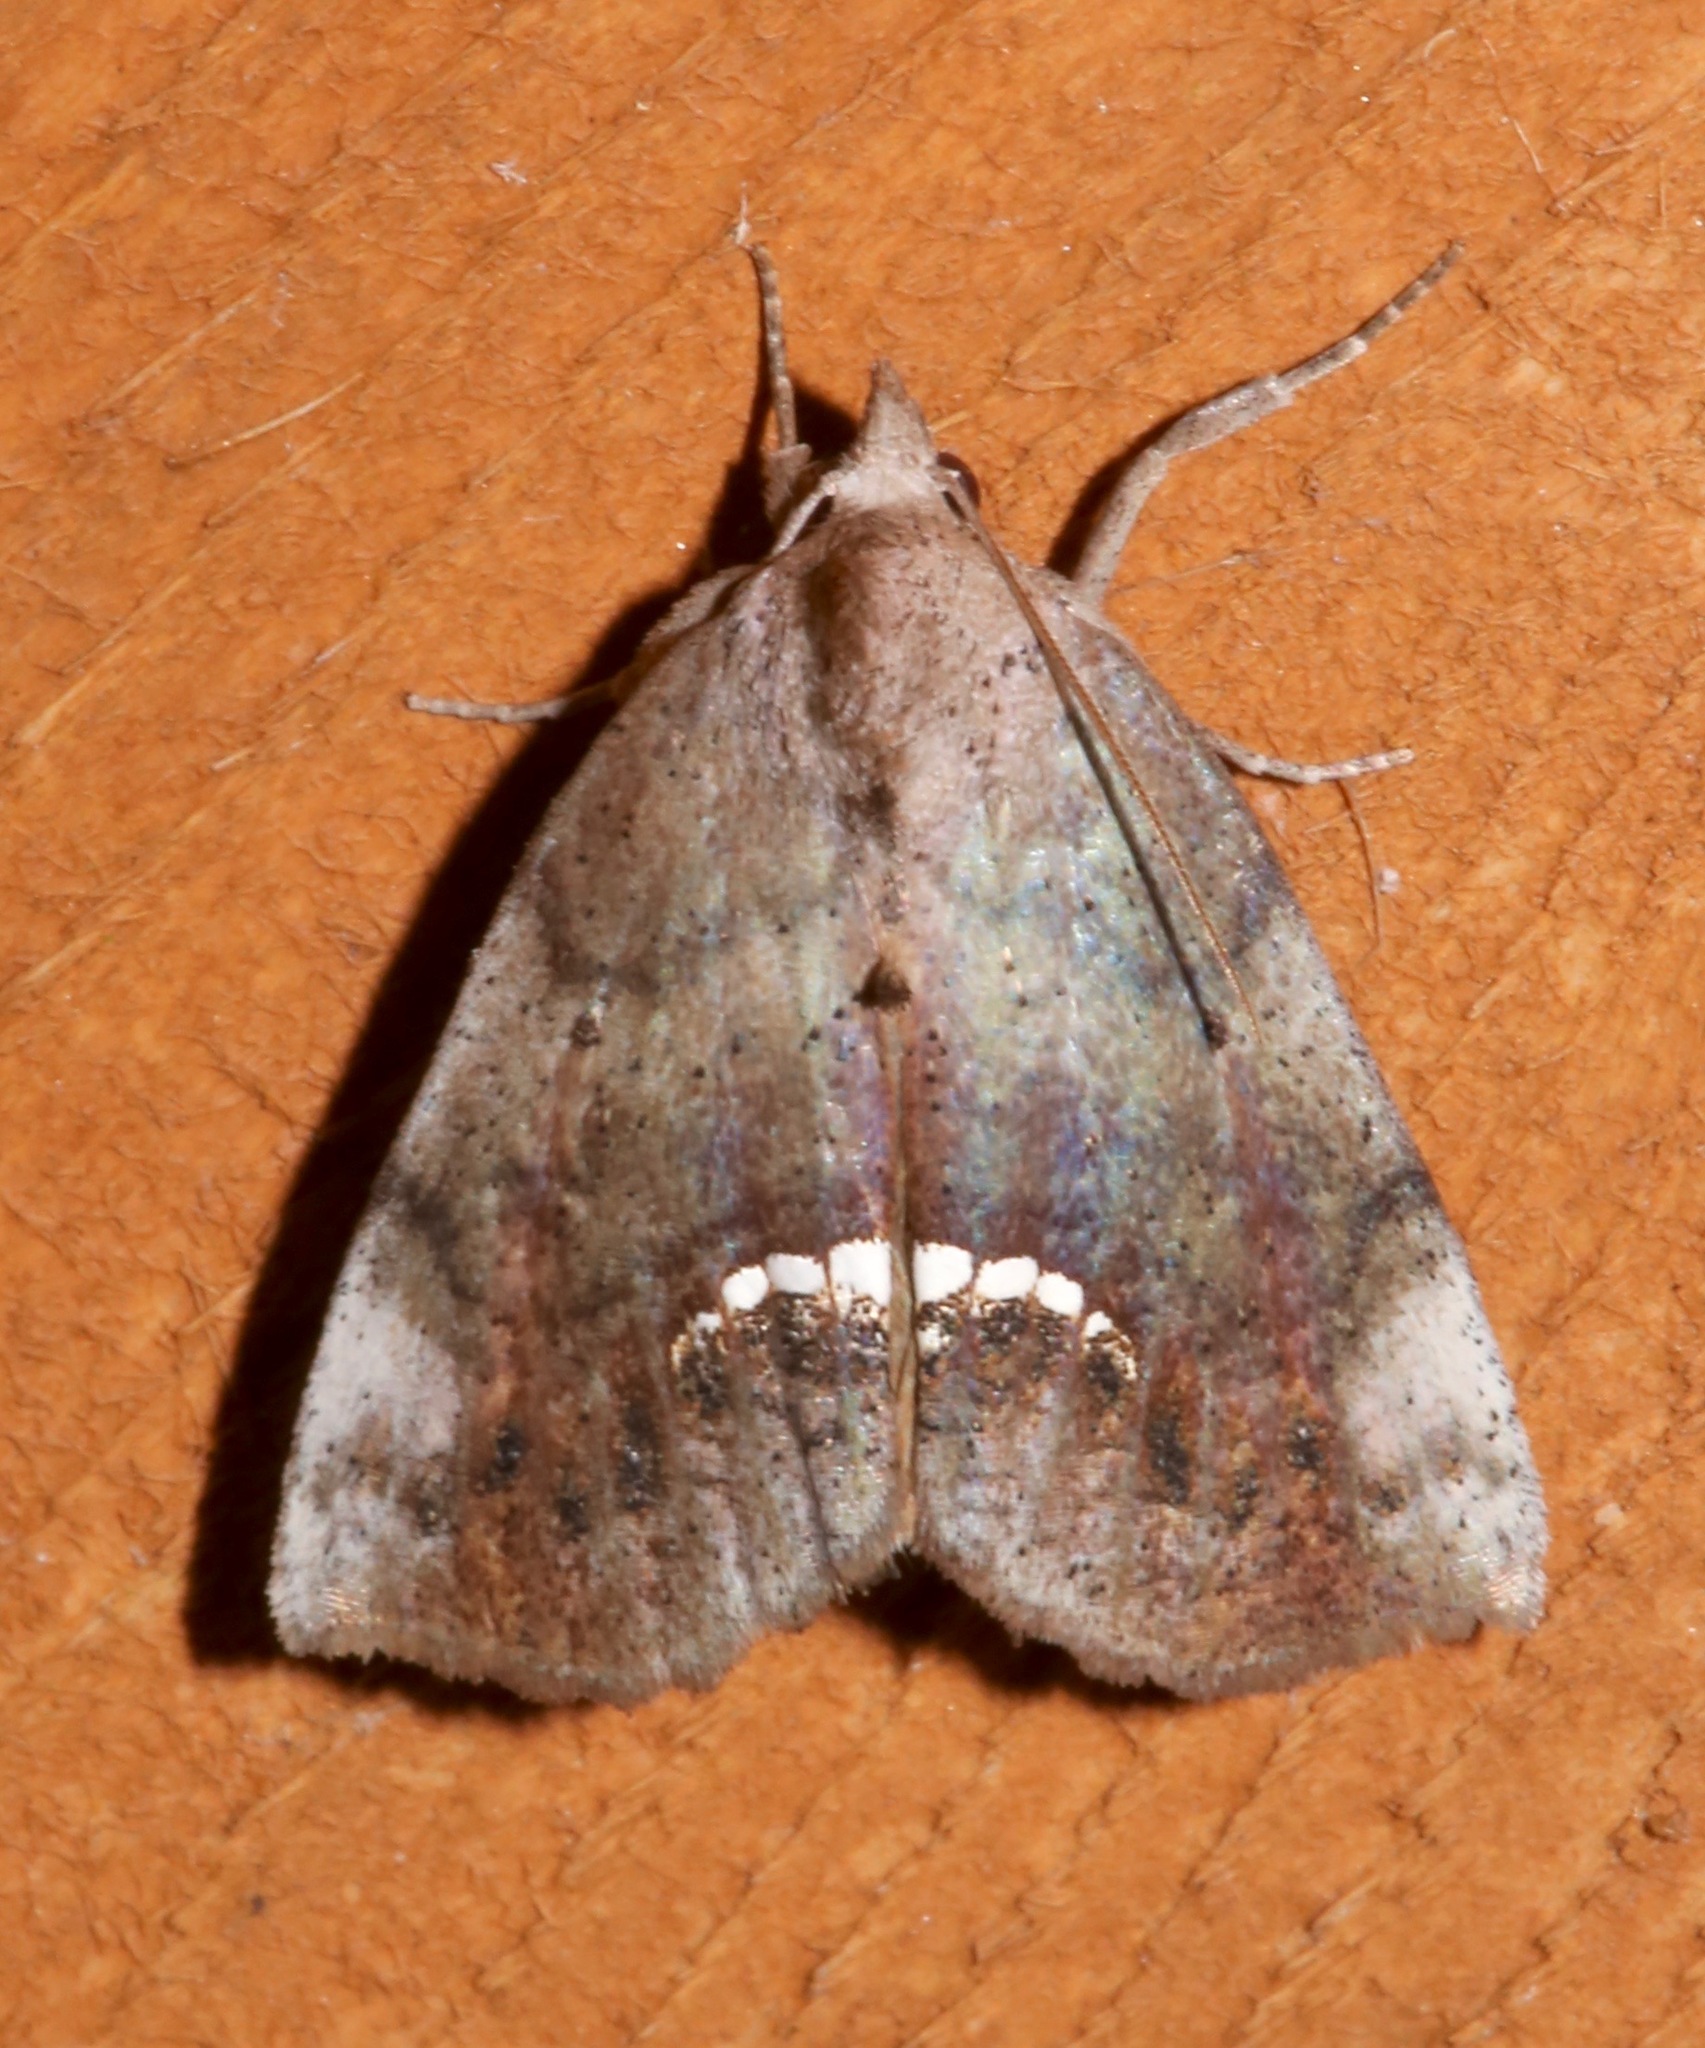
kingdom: Animalia
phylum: Arthropoda
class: Insecta
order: Lepidoptera
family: Erebidae
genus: Hypsoropha
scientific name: Hypsoropha hormos
